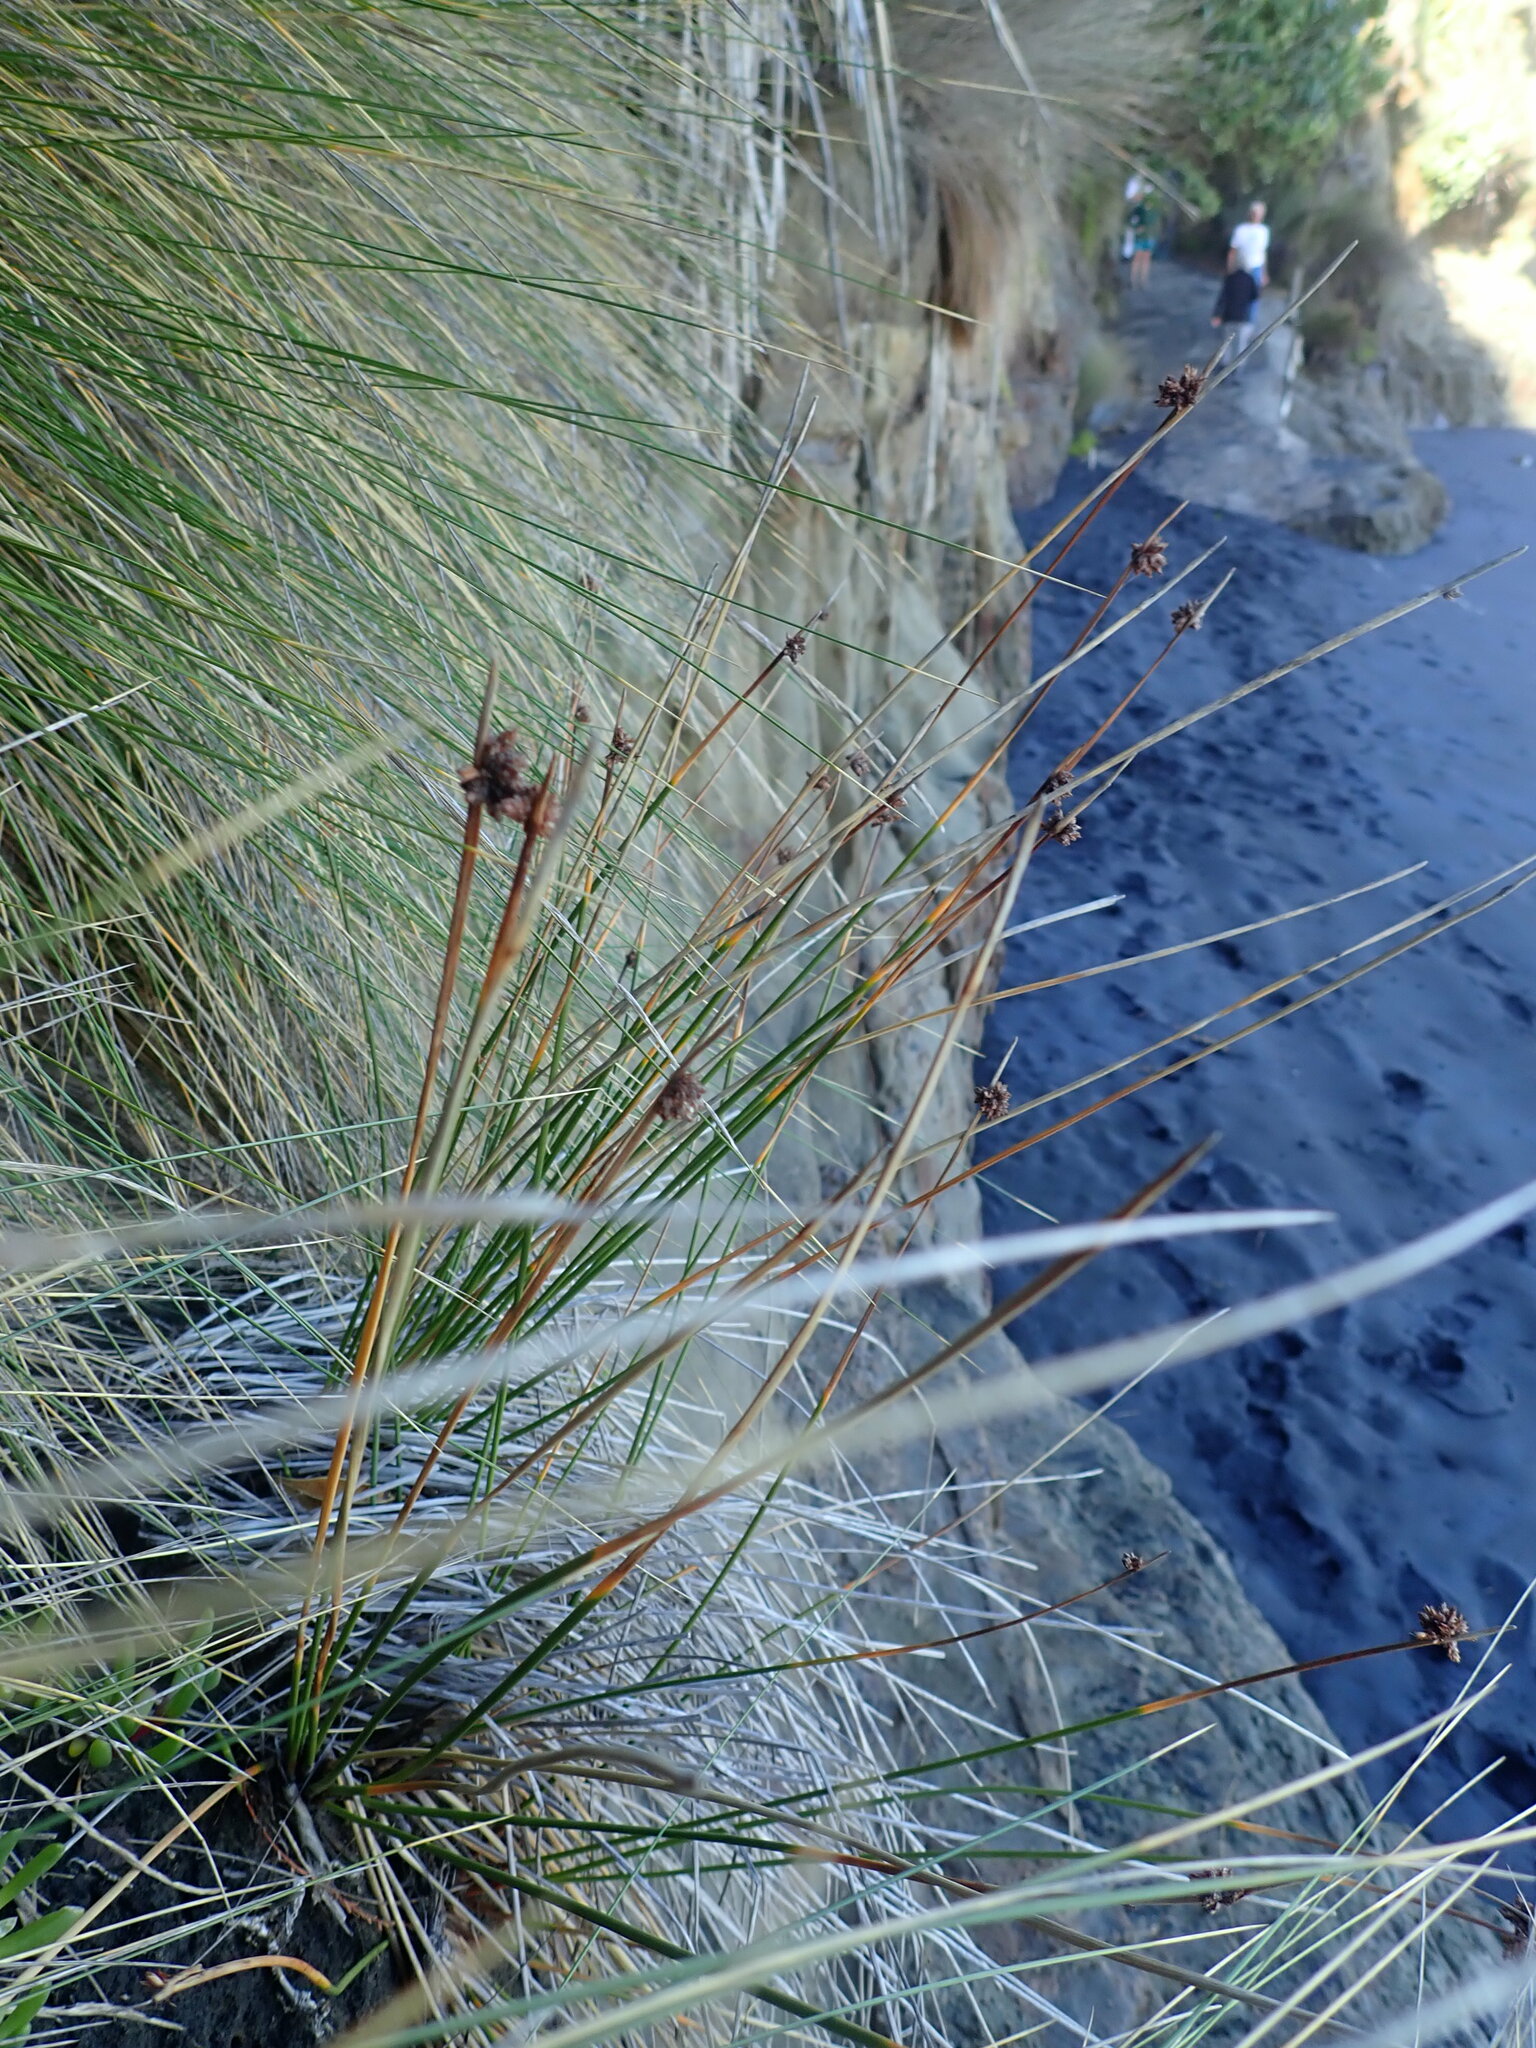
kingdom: Plantae
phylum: Tracheophyta
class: Liliopsida
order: Poales
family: Cyperaceae
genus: Ficinia
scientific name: Ficinia nodosa
